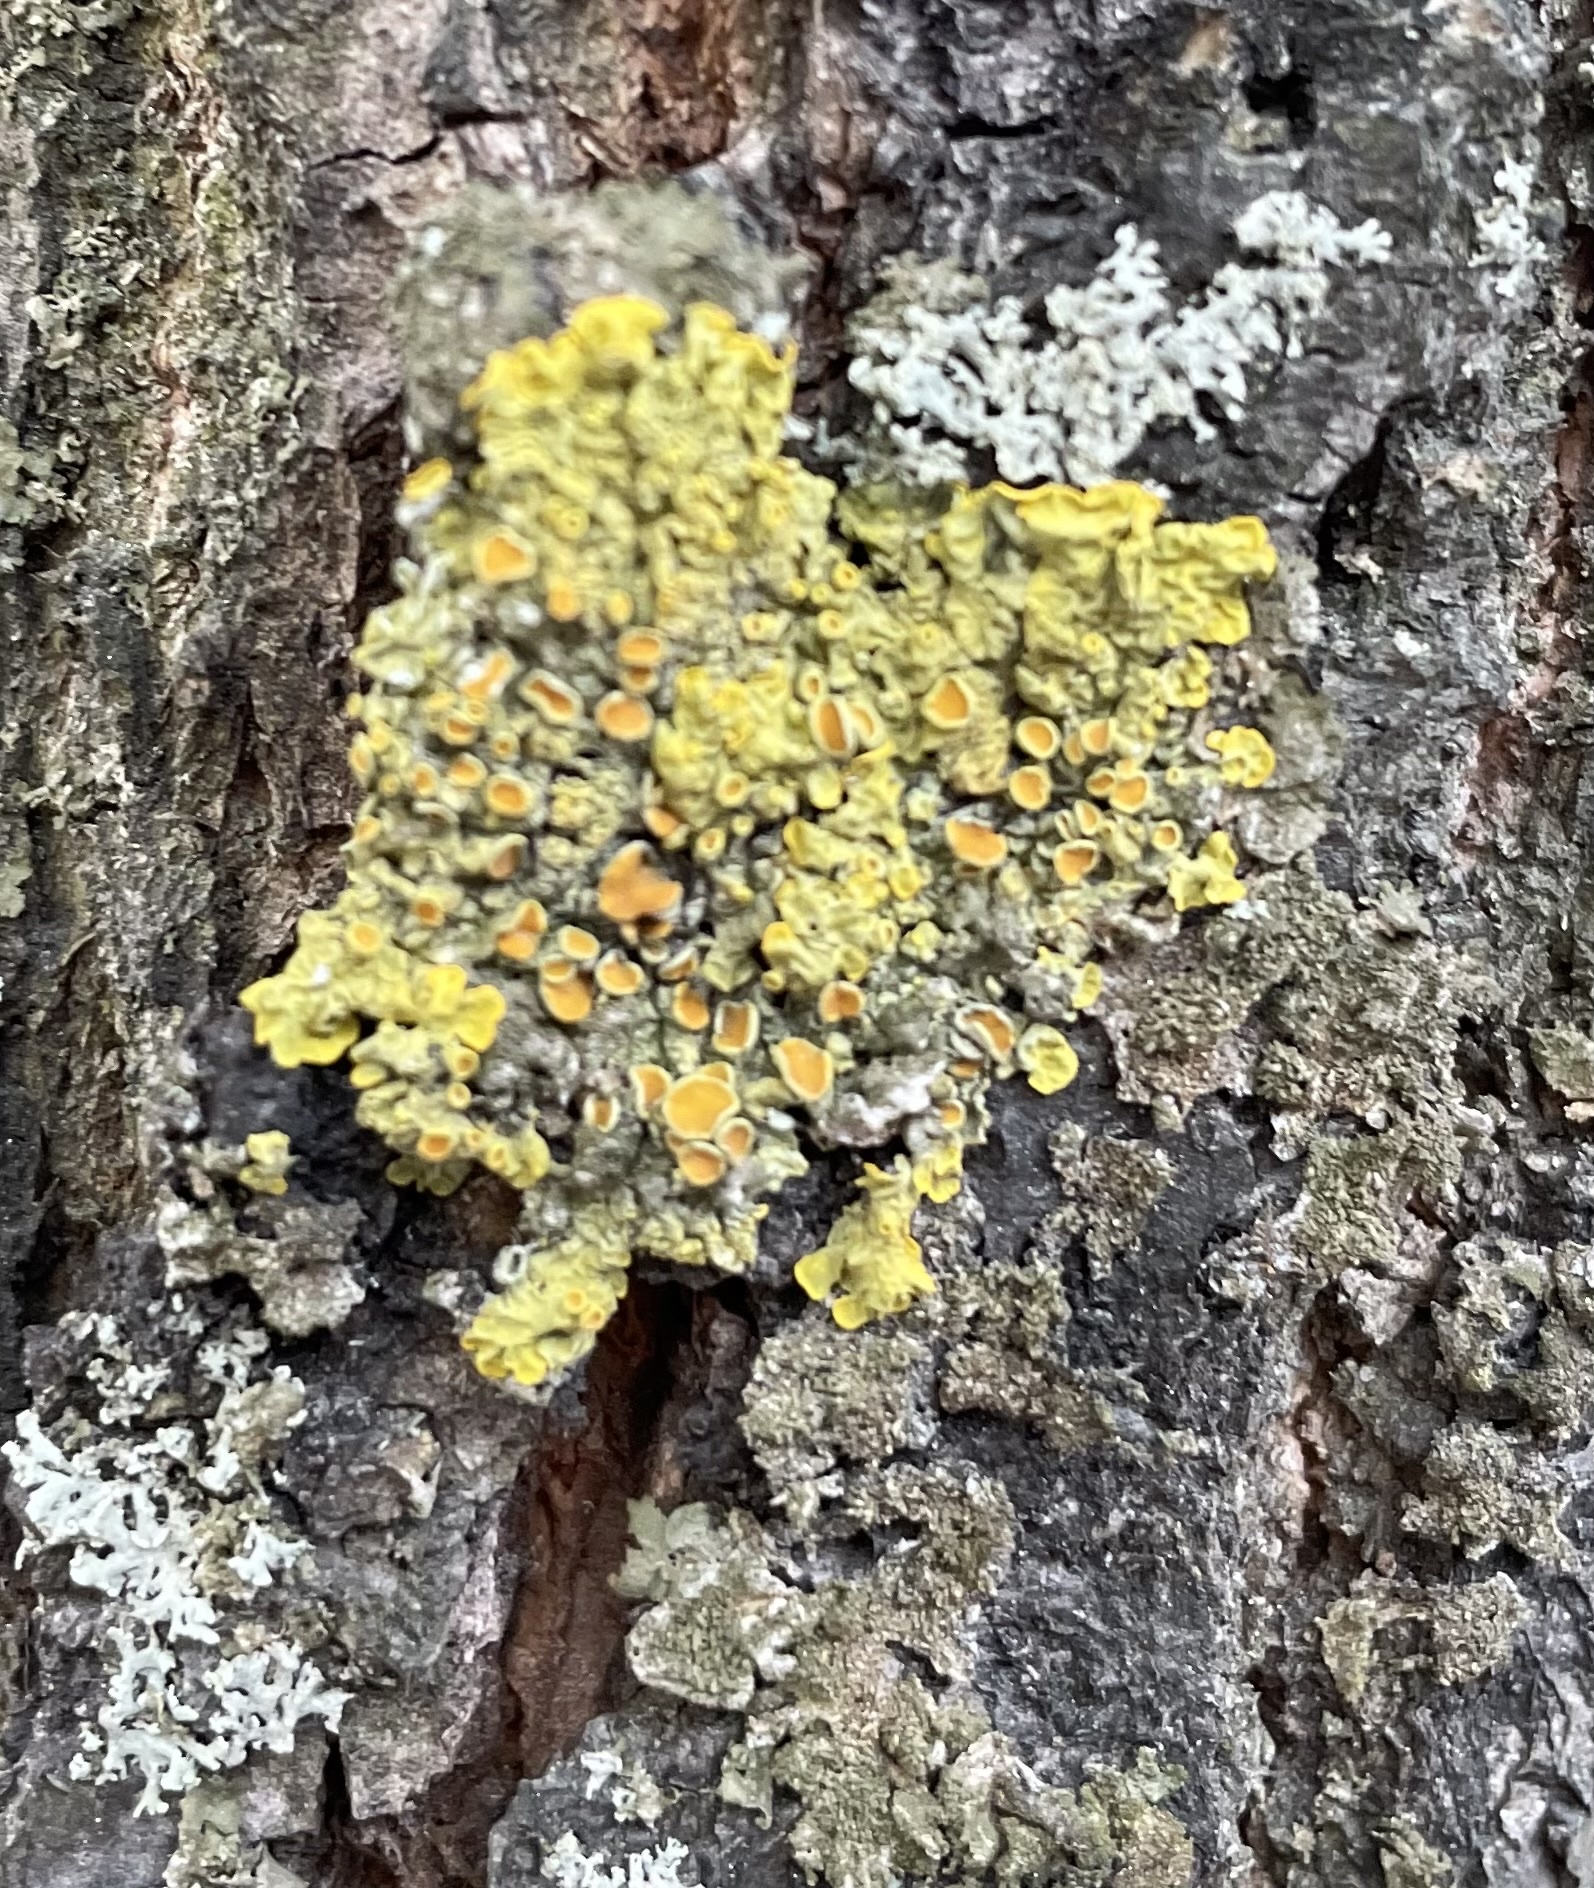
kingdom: Fungi
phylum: Ascomycota
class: Lecanoromycetes
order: Teloschistales
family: Teloschistaceae
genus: Xanthoria
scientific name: Xanthoria parietina
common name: Common orange lichen
